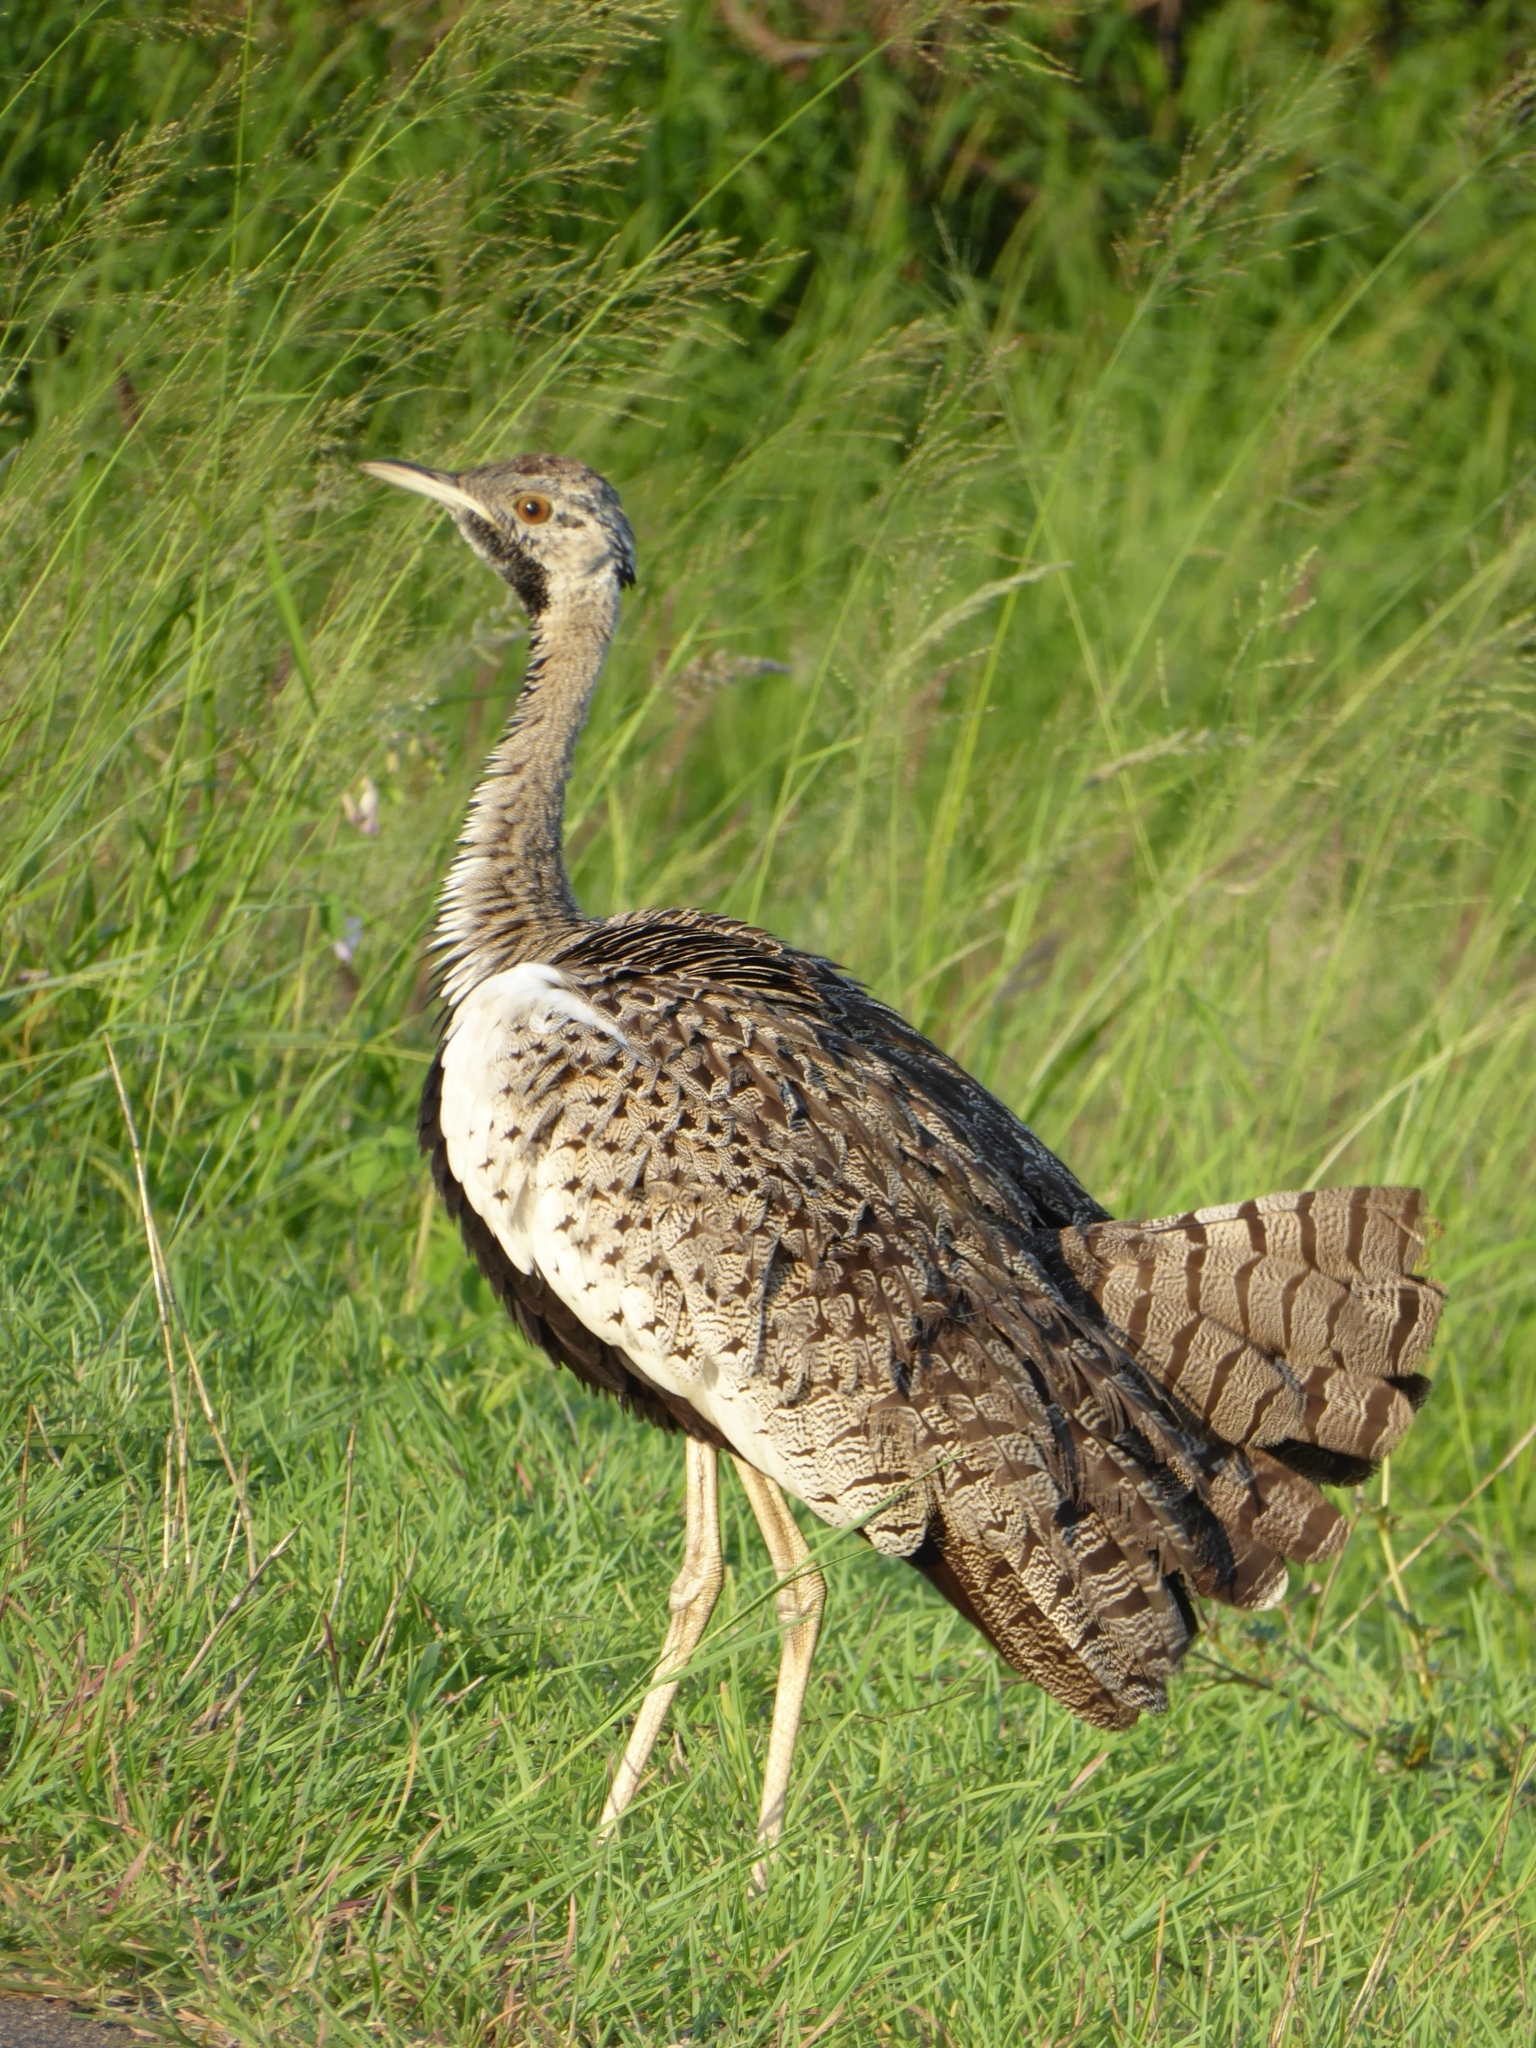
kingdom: Animalia
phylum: Chordata
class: Aves
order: Otidiformes
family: Otididae
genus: Lissotis
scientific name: Lissotis melanogaster
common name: Black-bellied bustard
